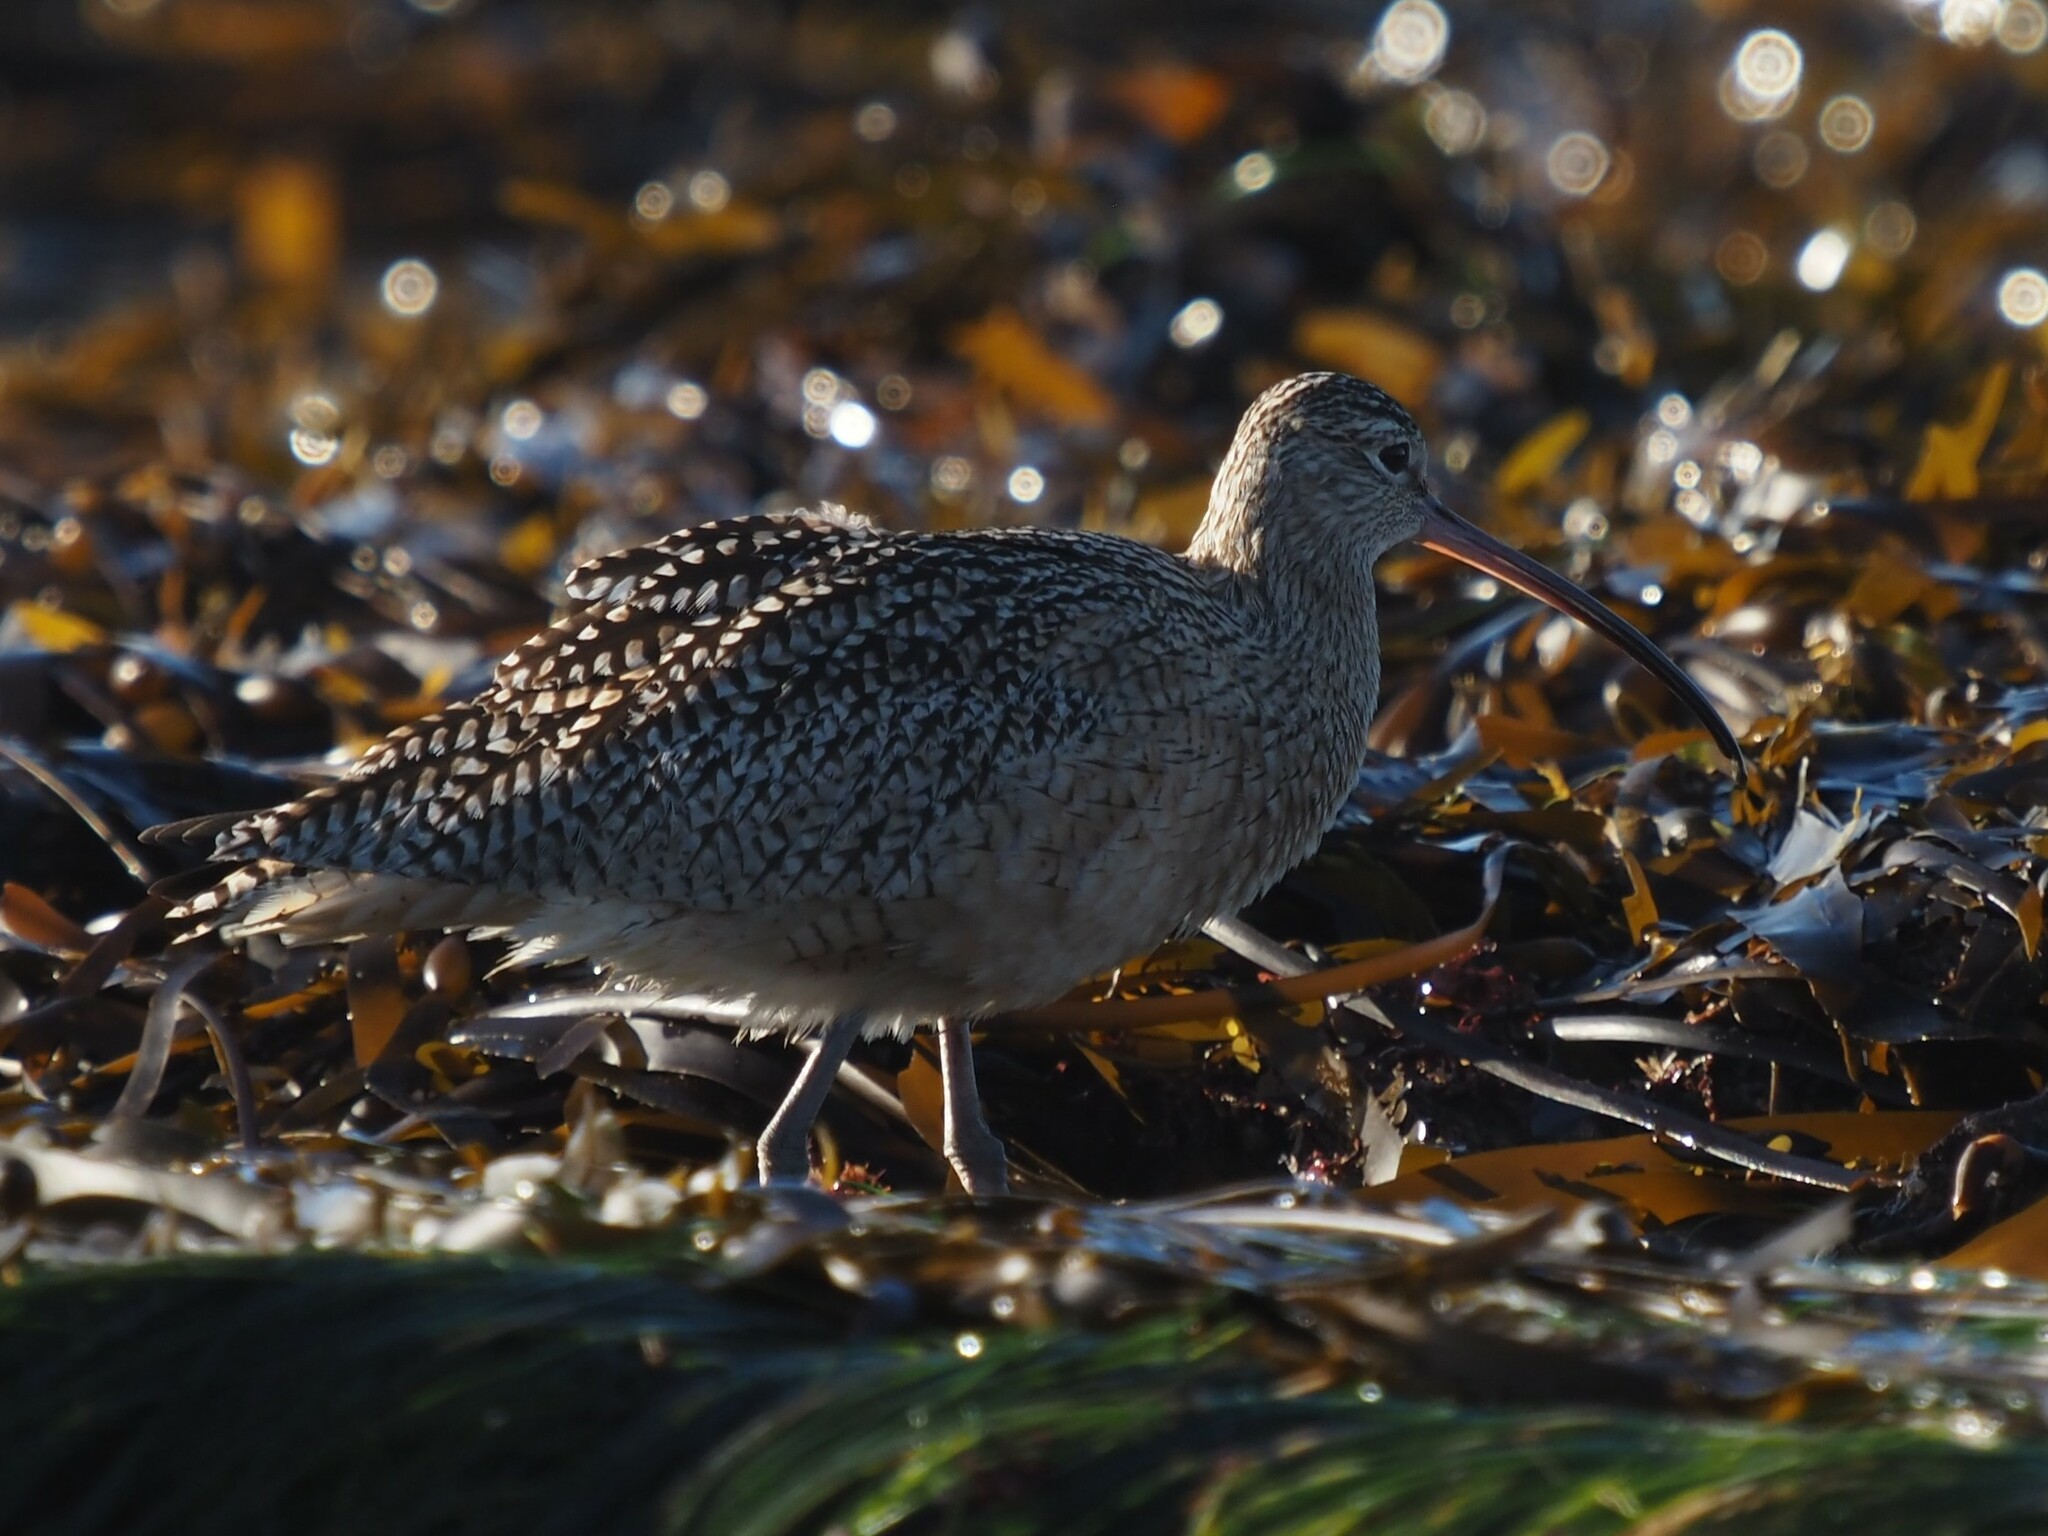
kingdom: Animalia
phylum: Chordata
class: Aves
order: Charadriiformes
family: Scolopacidae
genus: Numenius
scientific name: Numenius americanus
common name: Long-billed curlew
